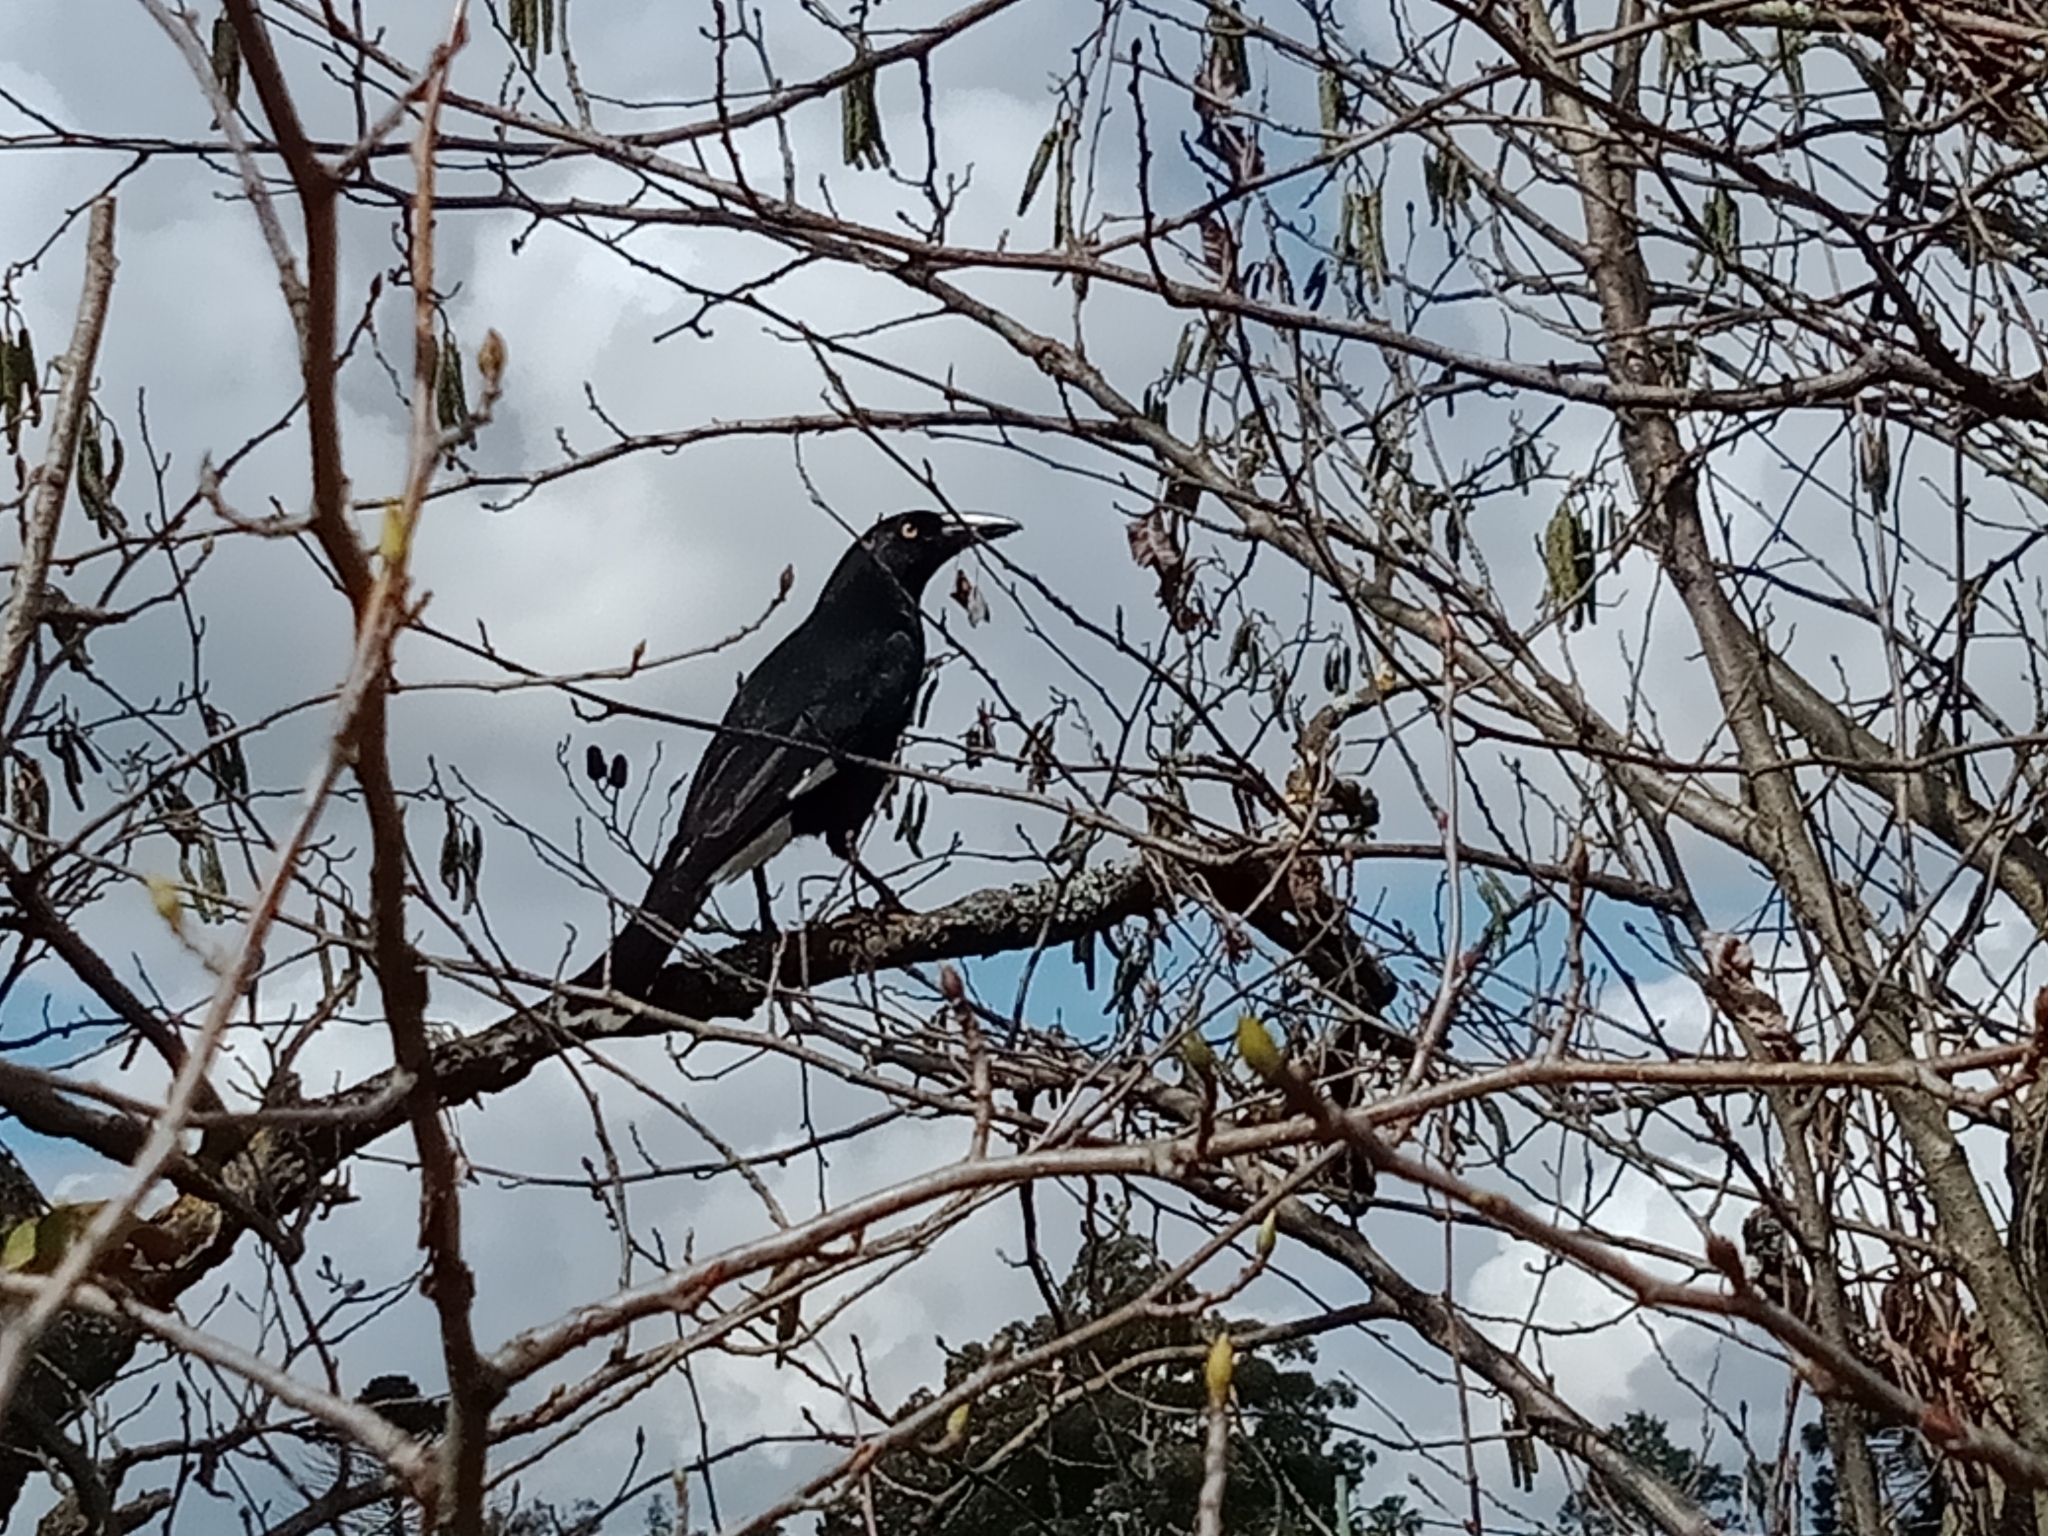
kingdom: Animalia
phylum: Chordata
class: Aves
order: Passeriformes
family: Cracticidae
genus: Strepera
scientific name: Strepera graculina
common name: Pied currawong
